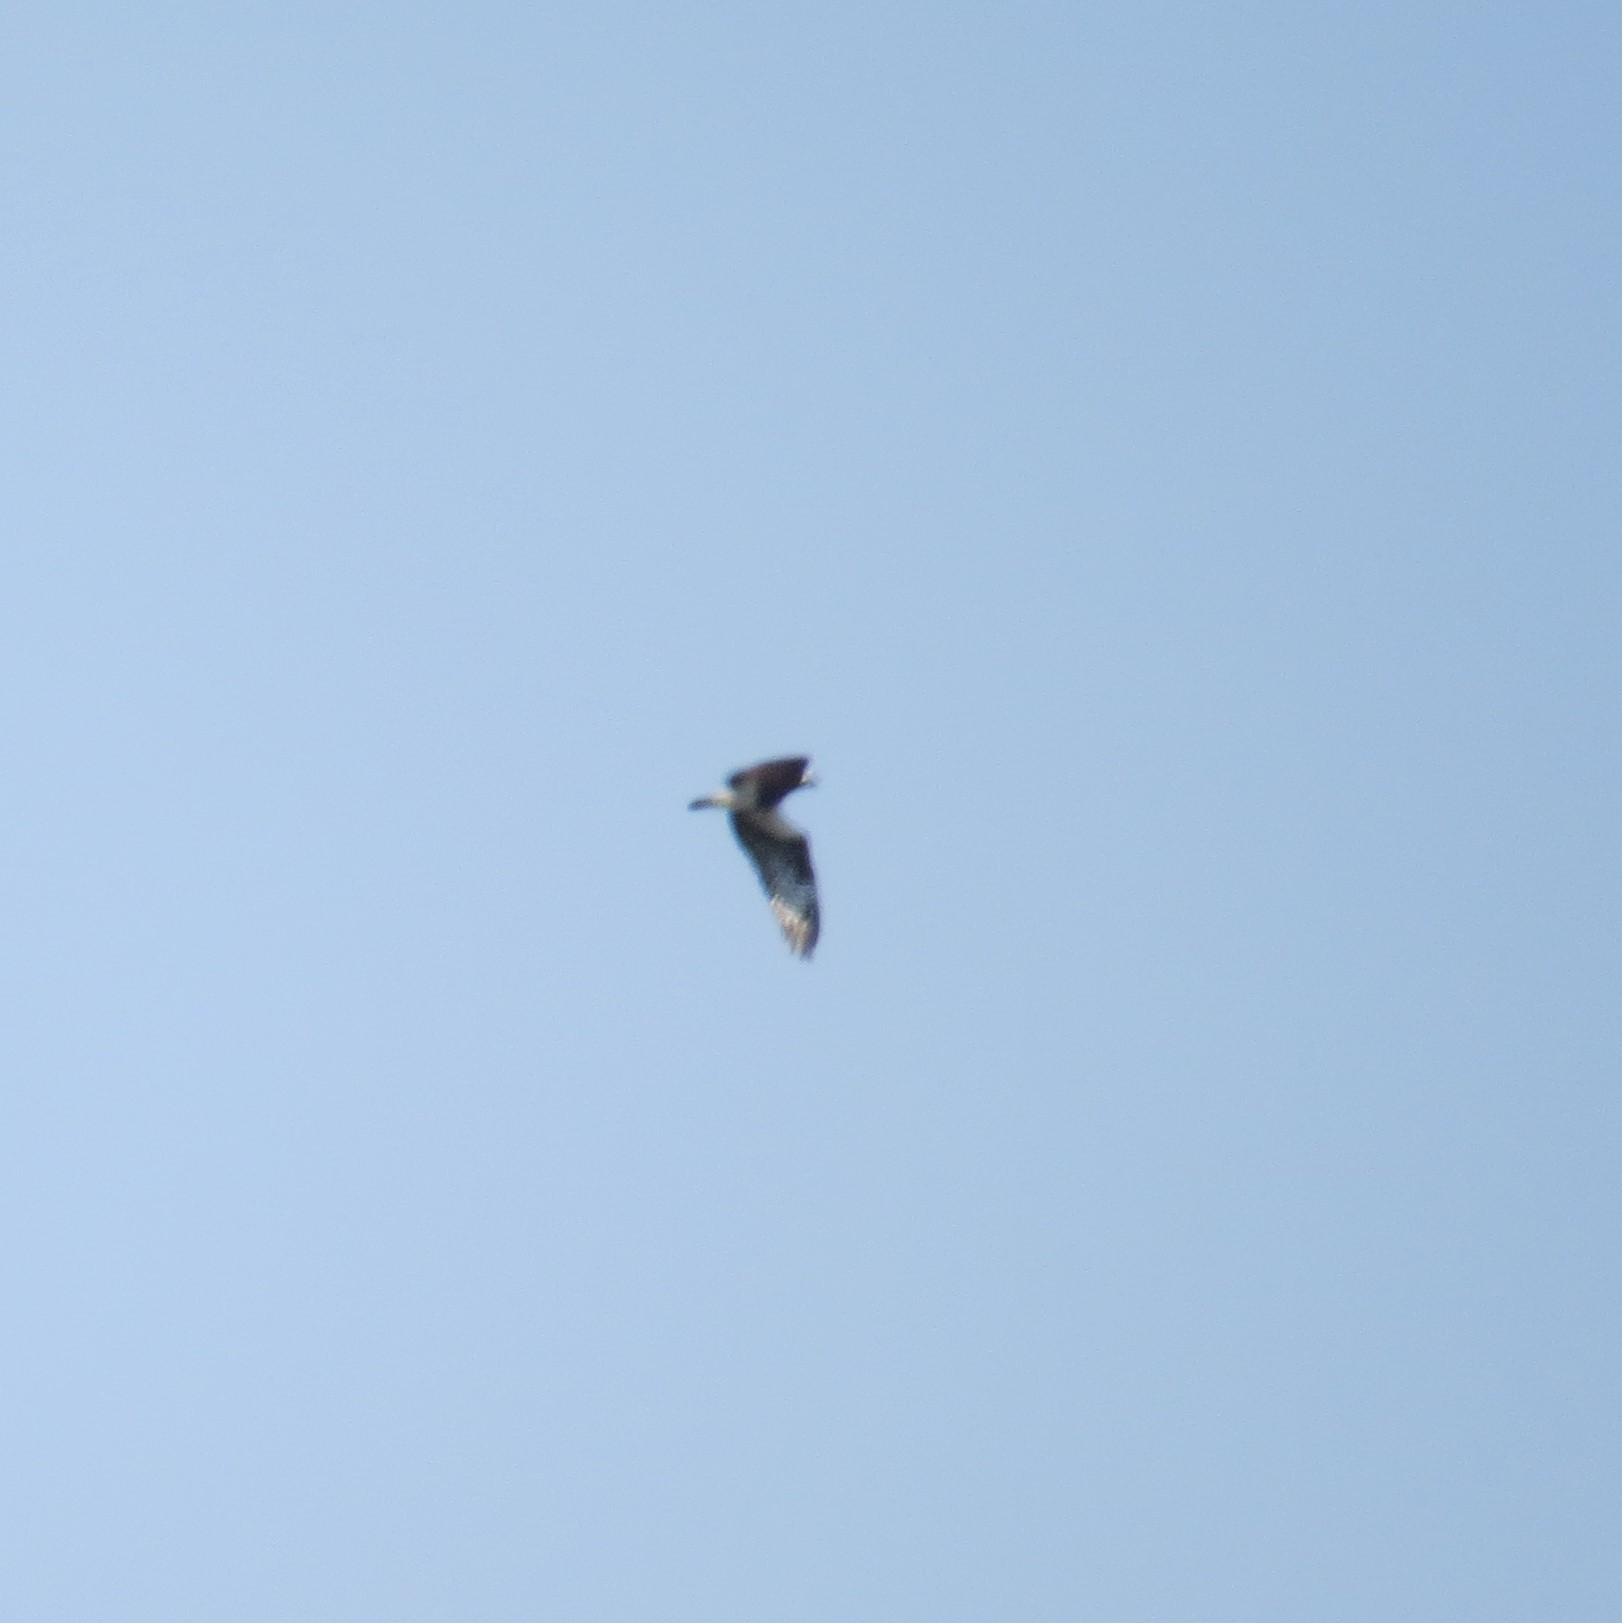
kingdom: Animalia
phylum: Chordata
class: Aves
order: Accipitriformes
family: Pandionidae
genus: Pandion
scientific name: Pandion haliaetus
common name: Osprey
